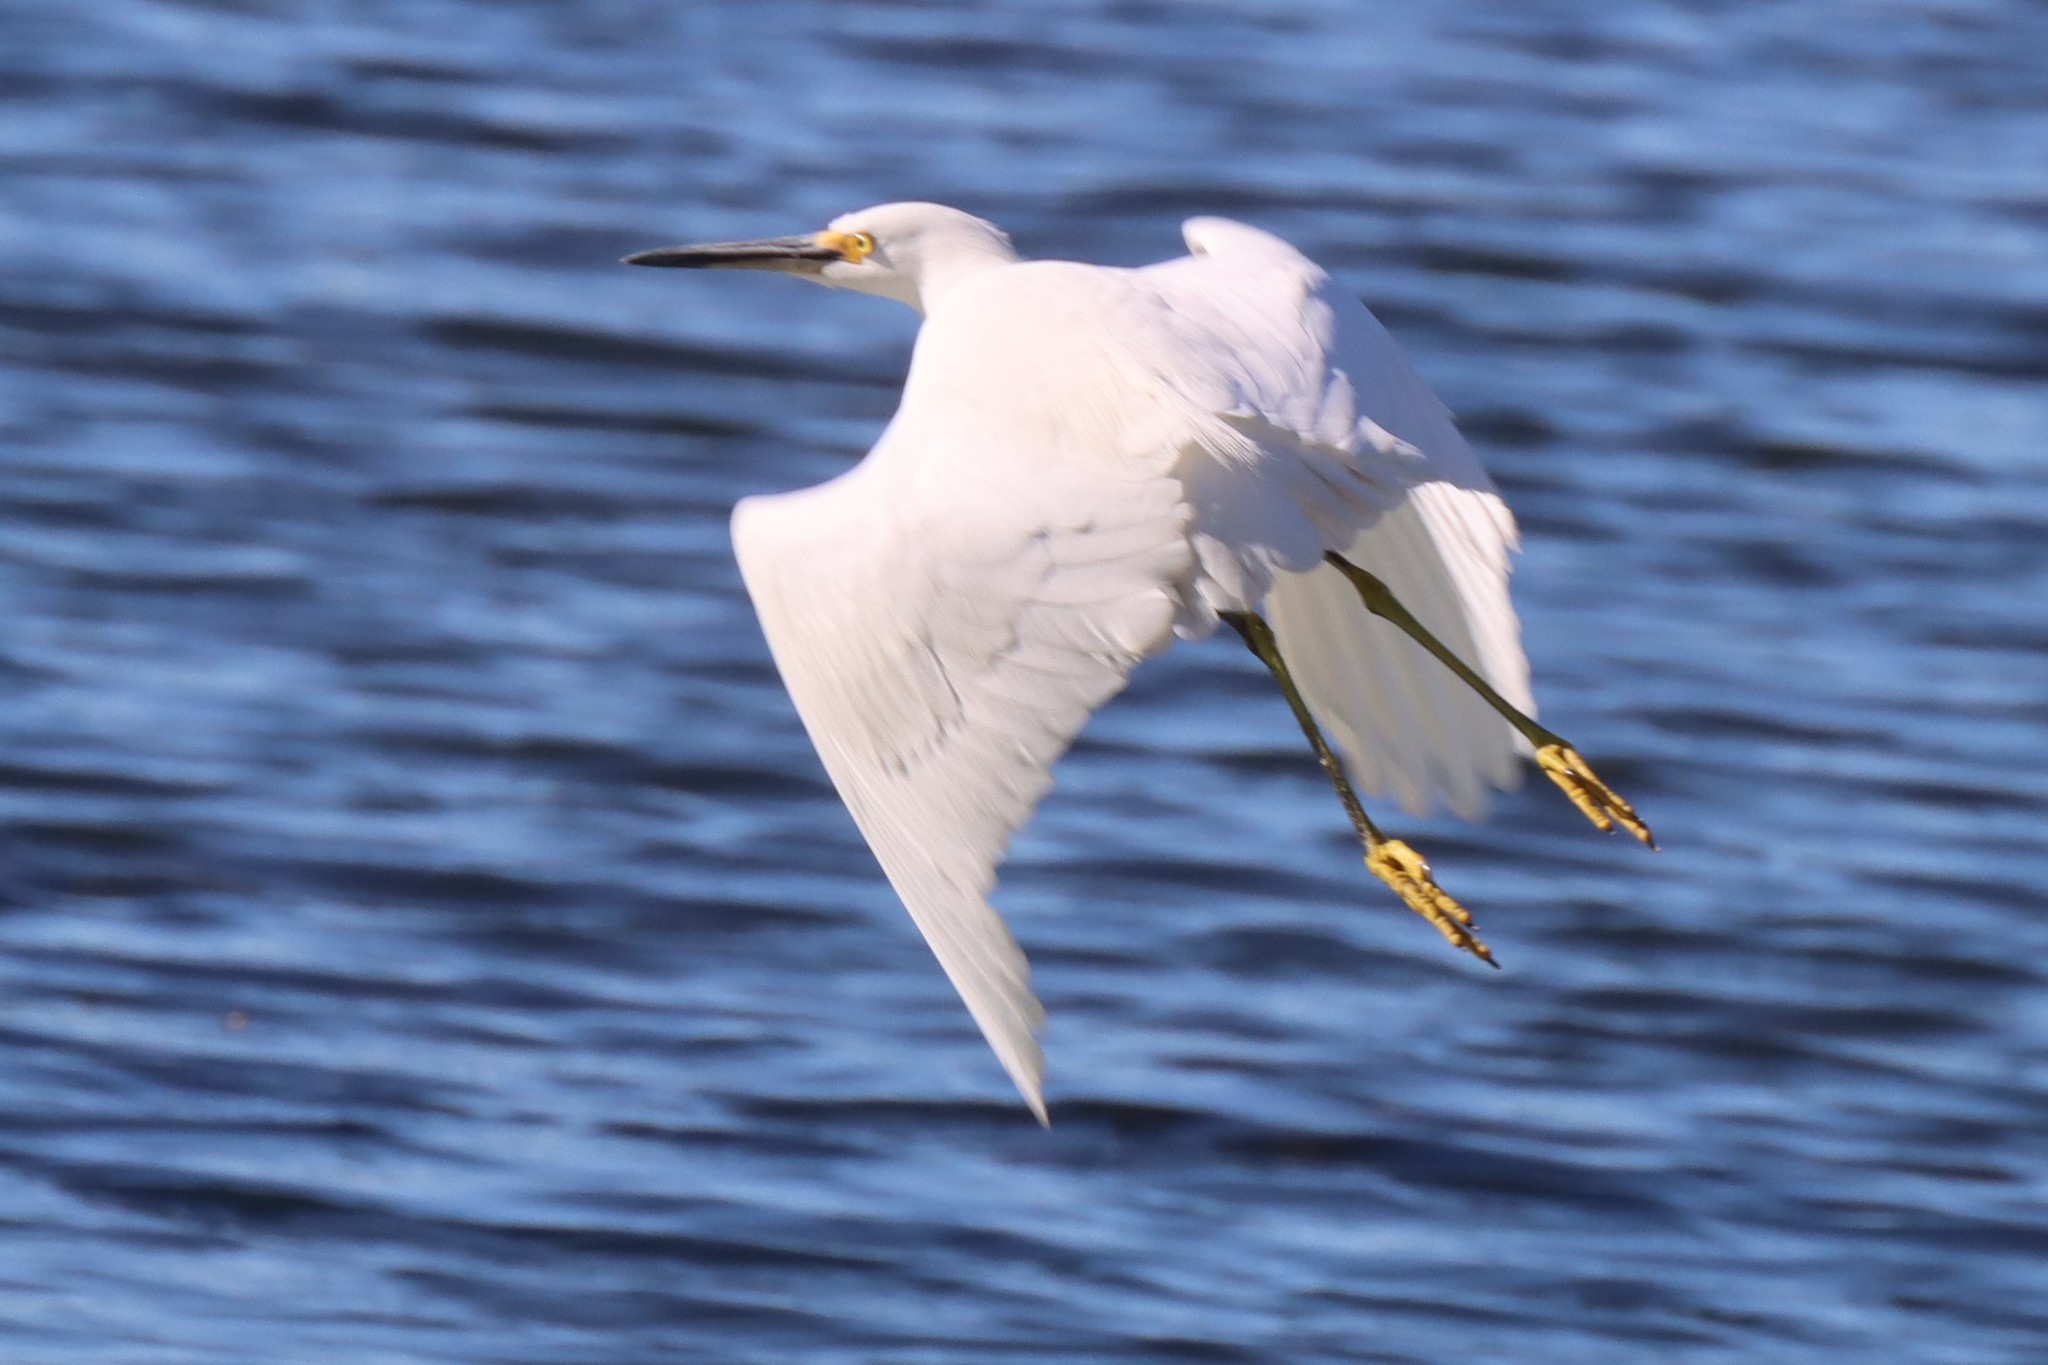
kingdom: Animalia
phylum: Chordata
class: Aves
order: Pelecaniformes
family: Ardeidae
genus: Egretta
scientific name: Egretta thula
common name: Snowy egret
